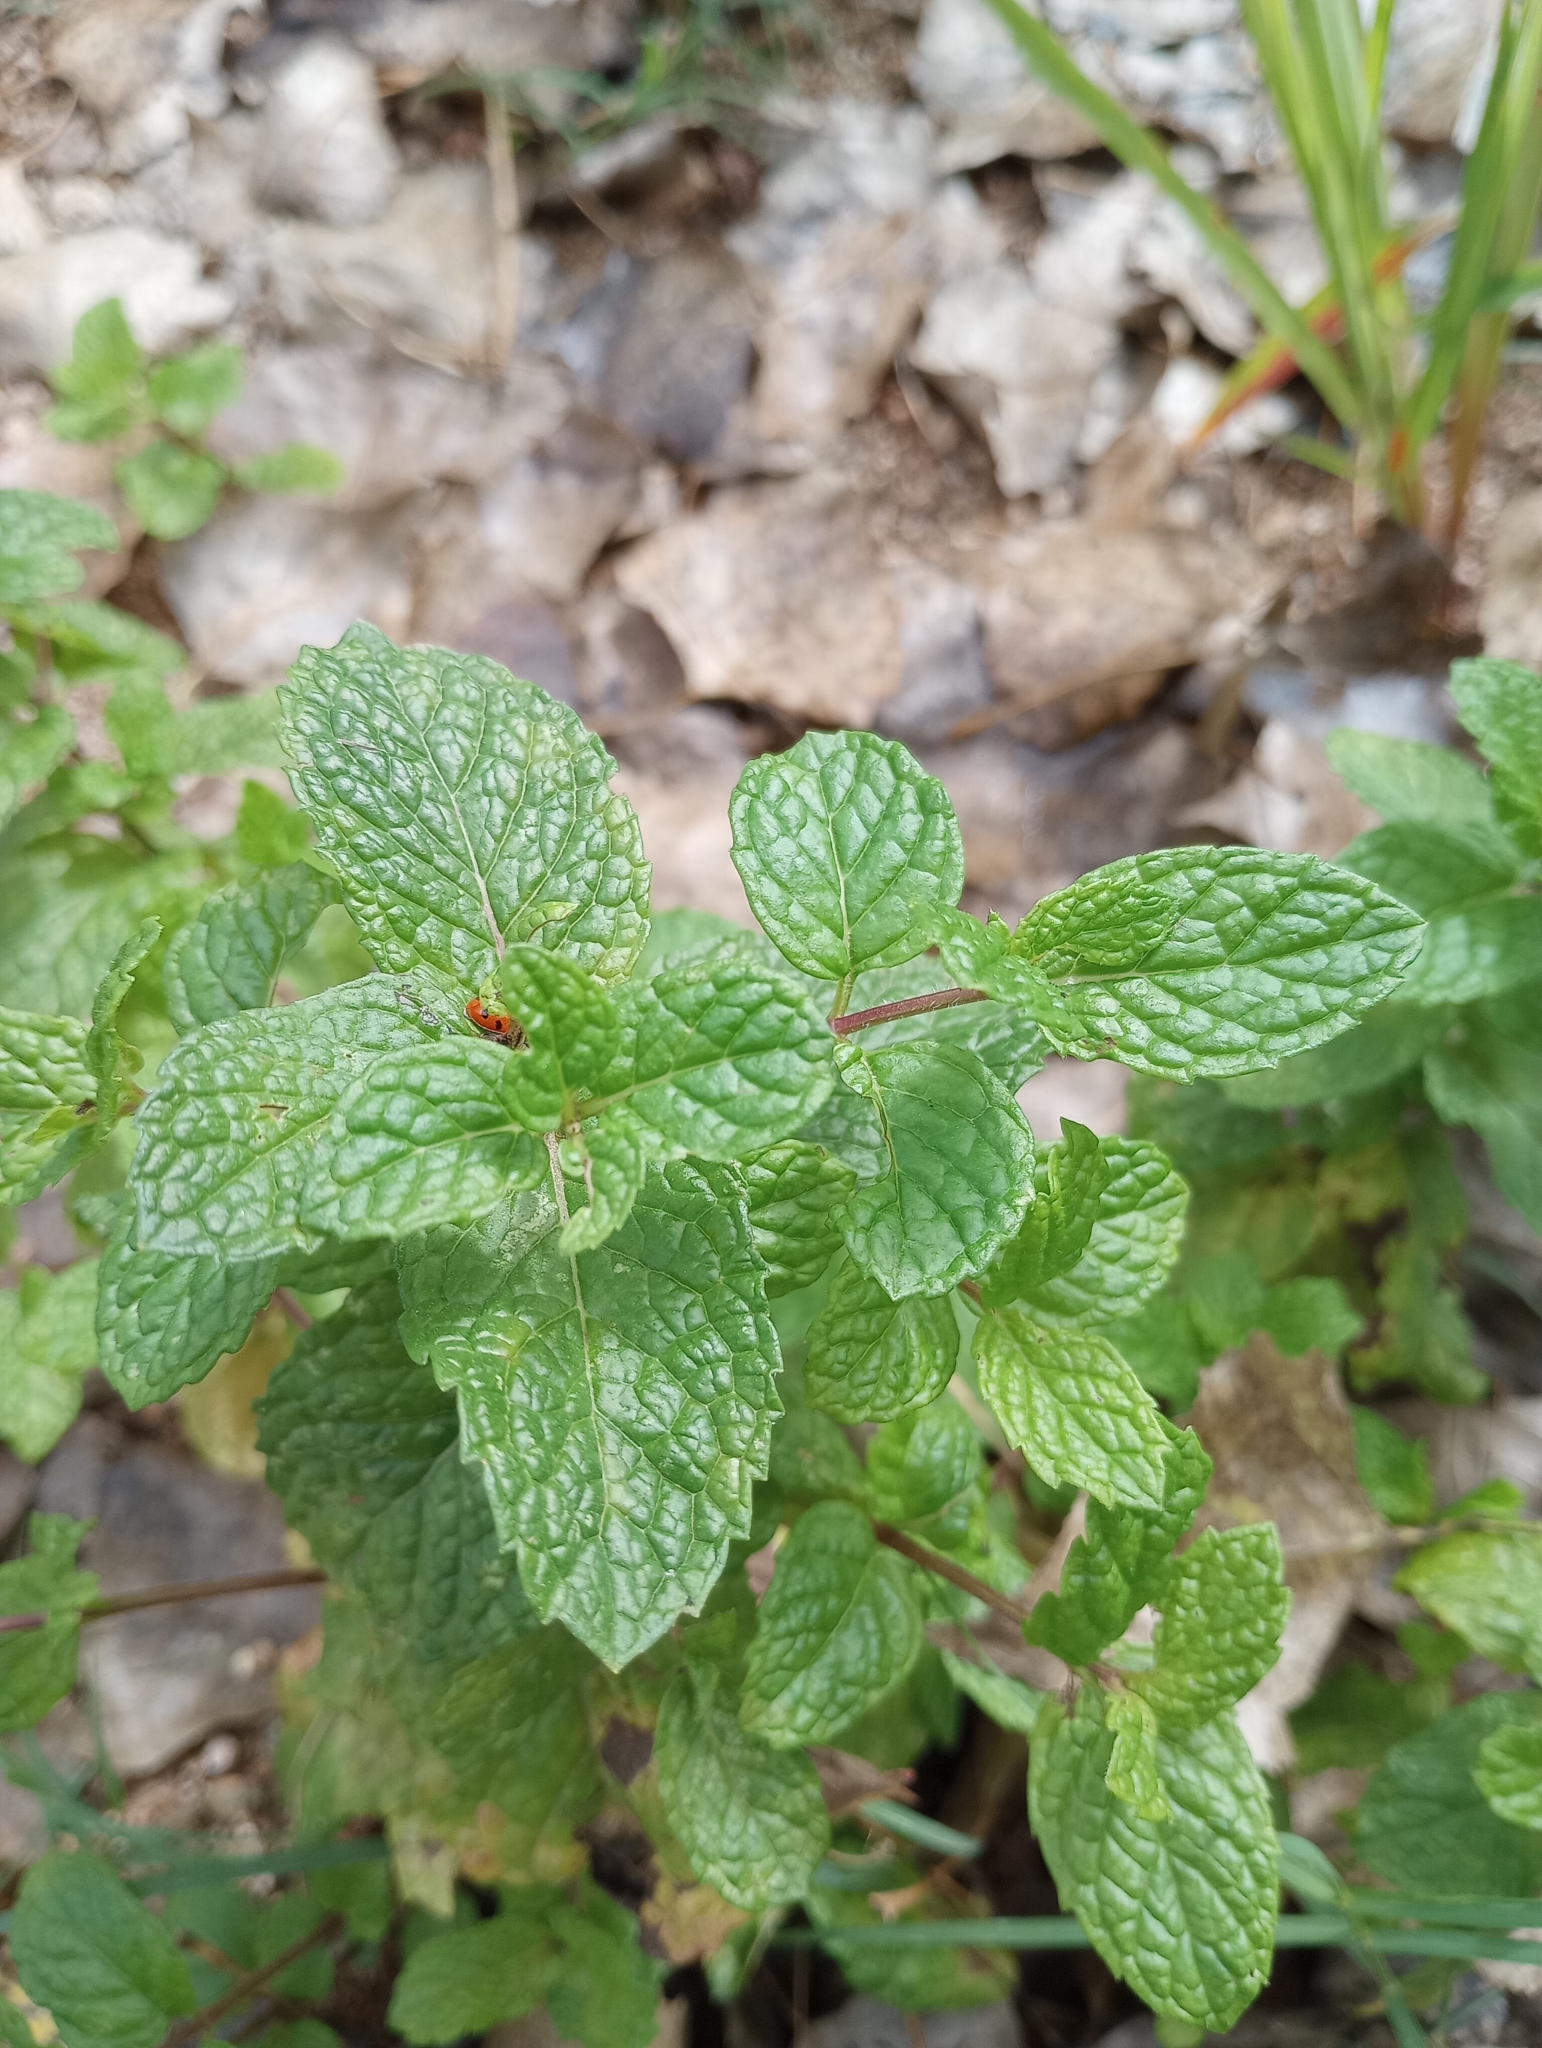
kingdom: Plantae
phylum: Tracheophyta
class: Magnoliopsida
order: Lamiales
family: Lamiaceae
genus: Mentha
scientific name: Mentha spicata
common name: Spearmint
